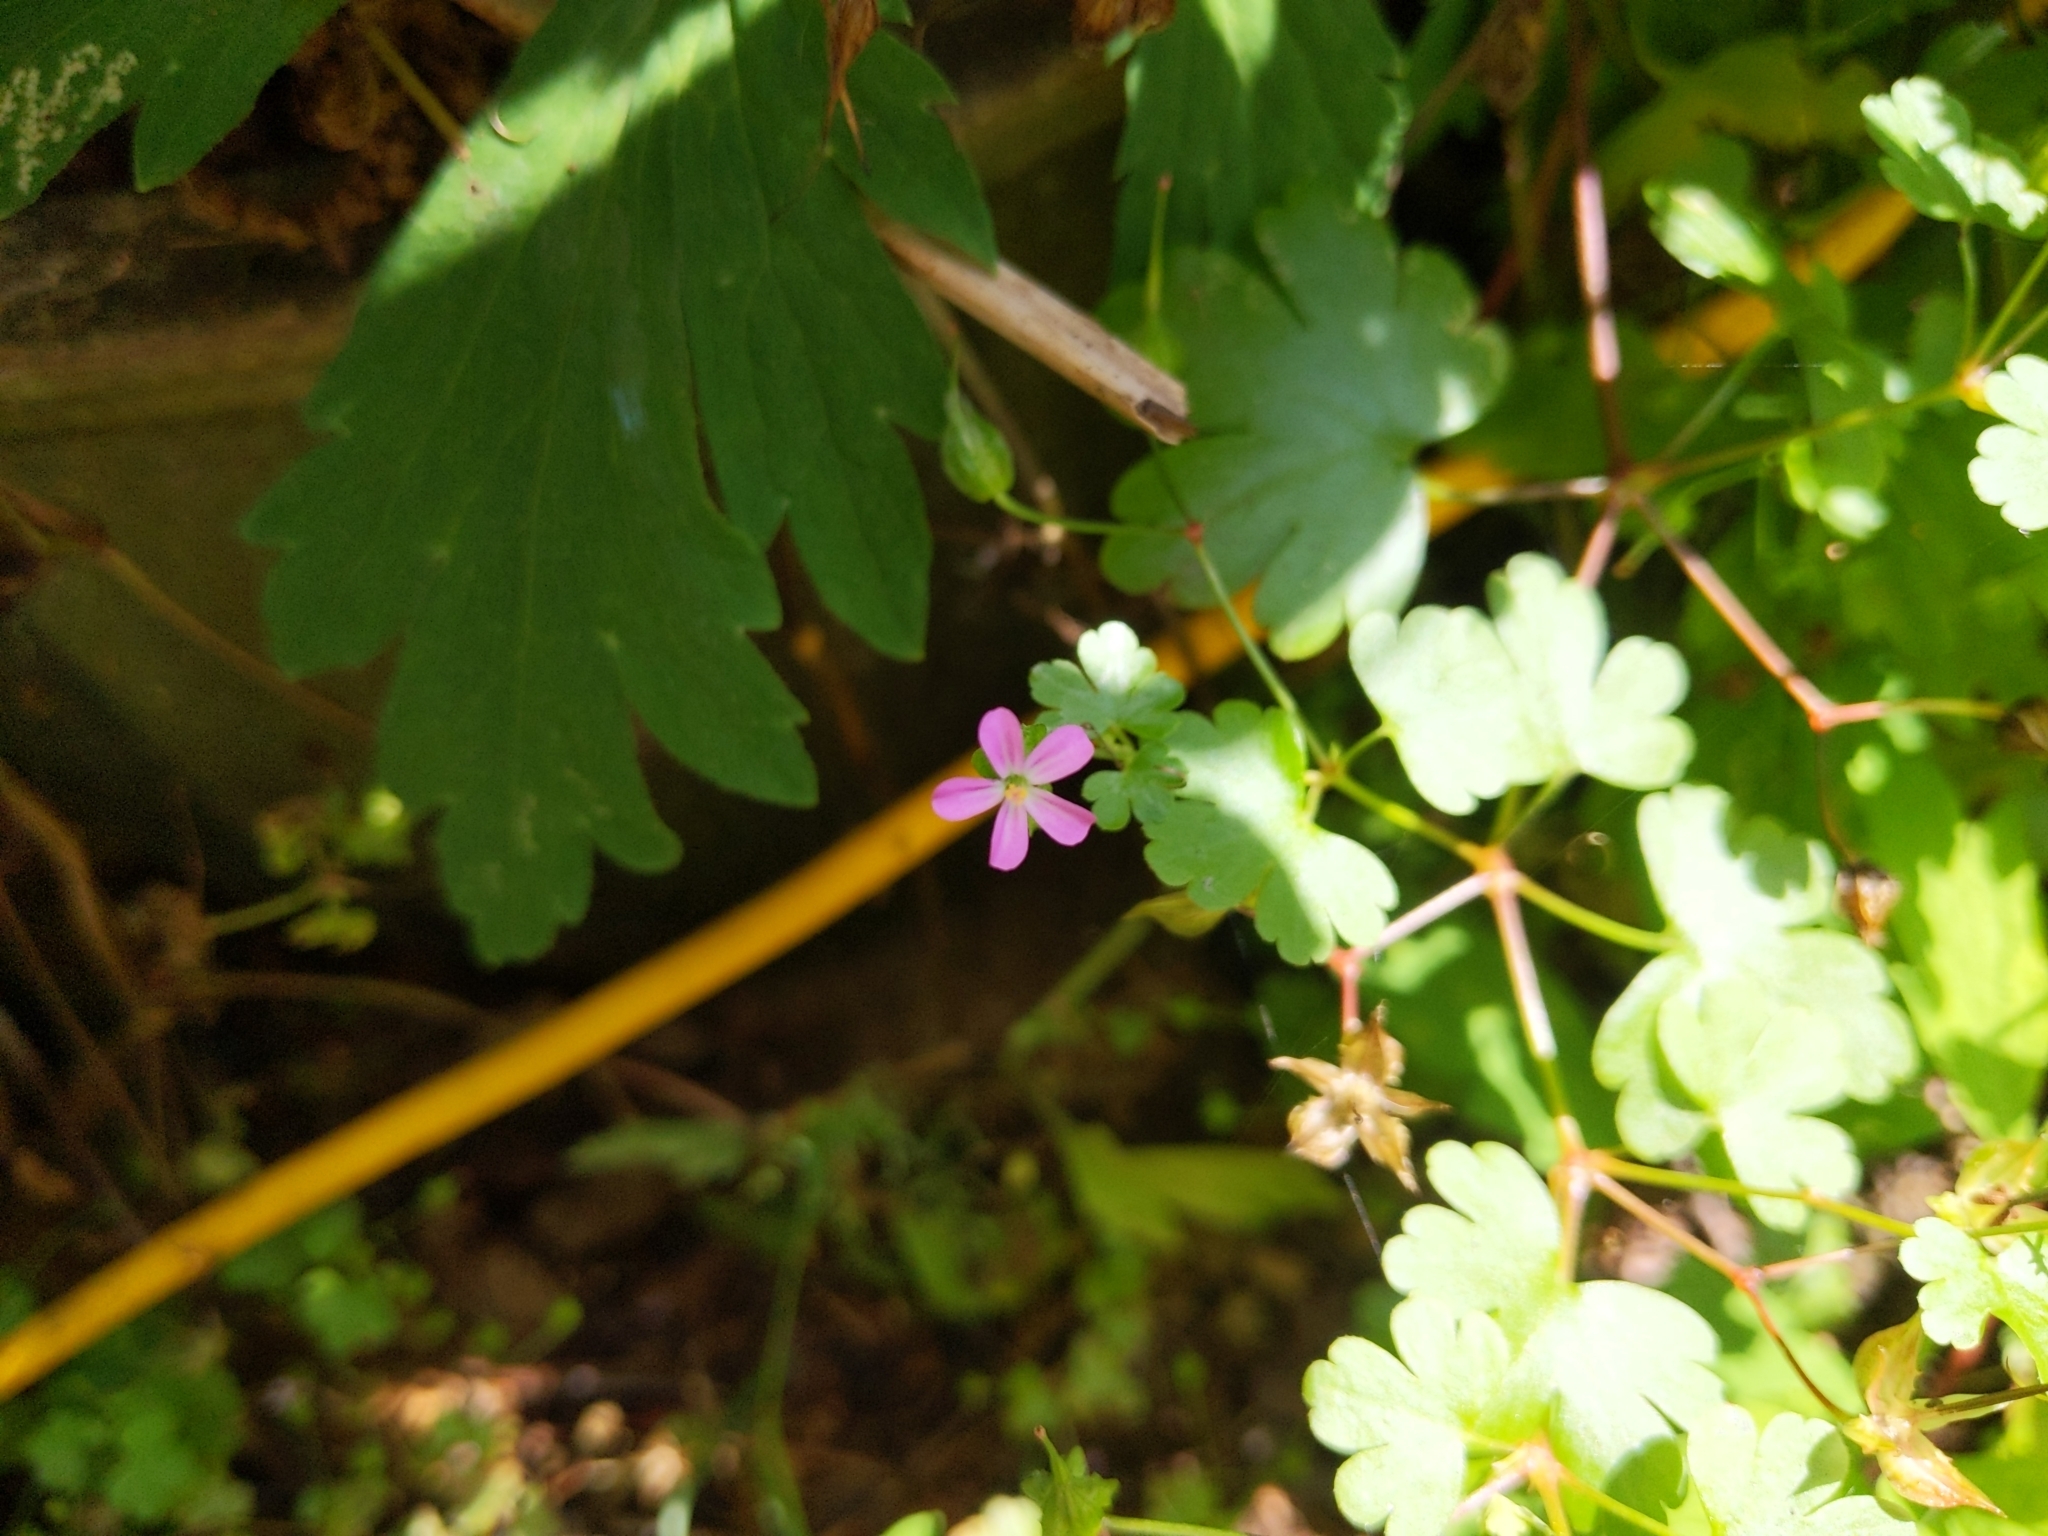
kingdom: Plantae
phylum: Tracheophyta
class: Magnoliopsida
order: Geraniales
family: Geraniaceae
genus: Geranium
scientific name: Geranium lucidum
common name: Shining crane's-bill
